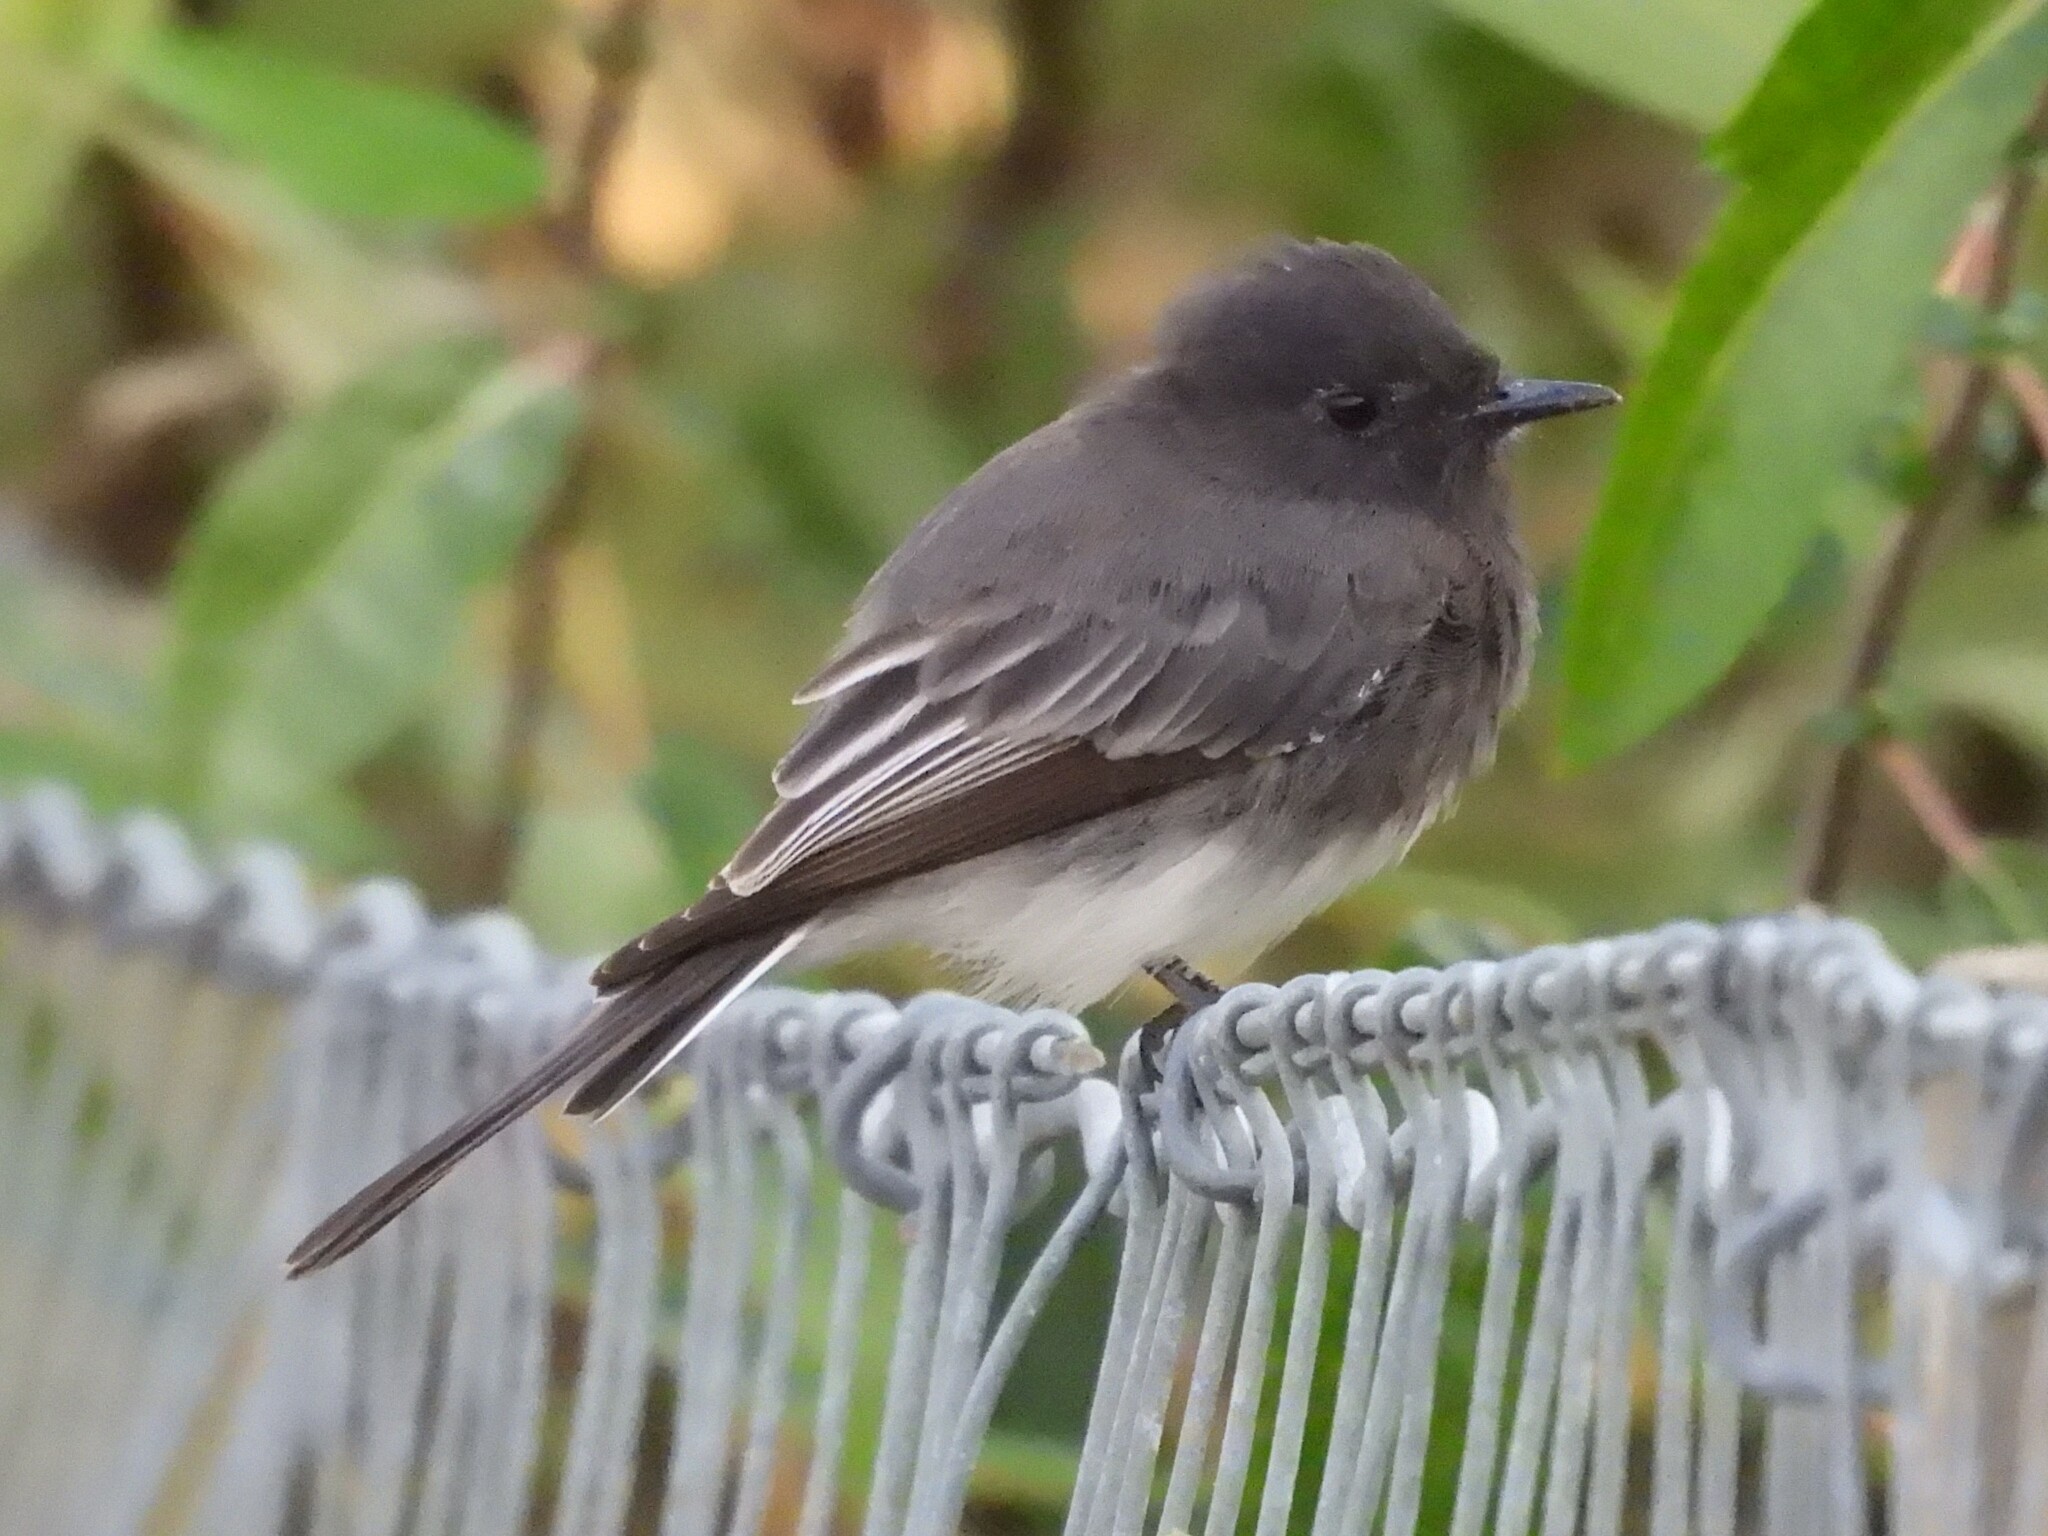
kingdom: Animalia
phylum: Chordata
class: Aves
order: Passeriformes
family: Tyrannidae
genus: Sayornis
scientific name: Sayornis nigricans
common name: Black phoebe
